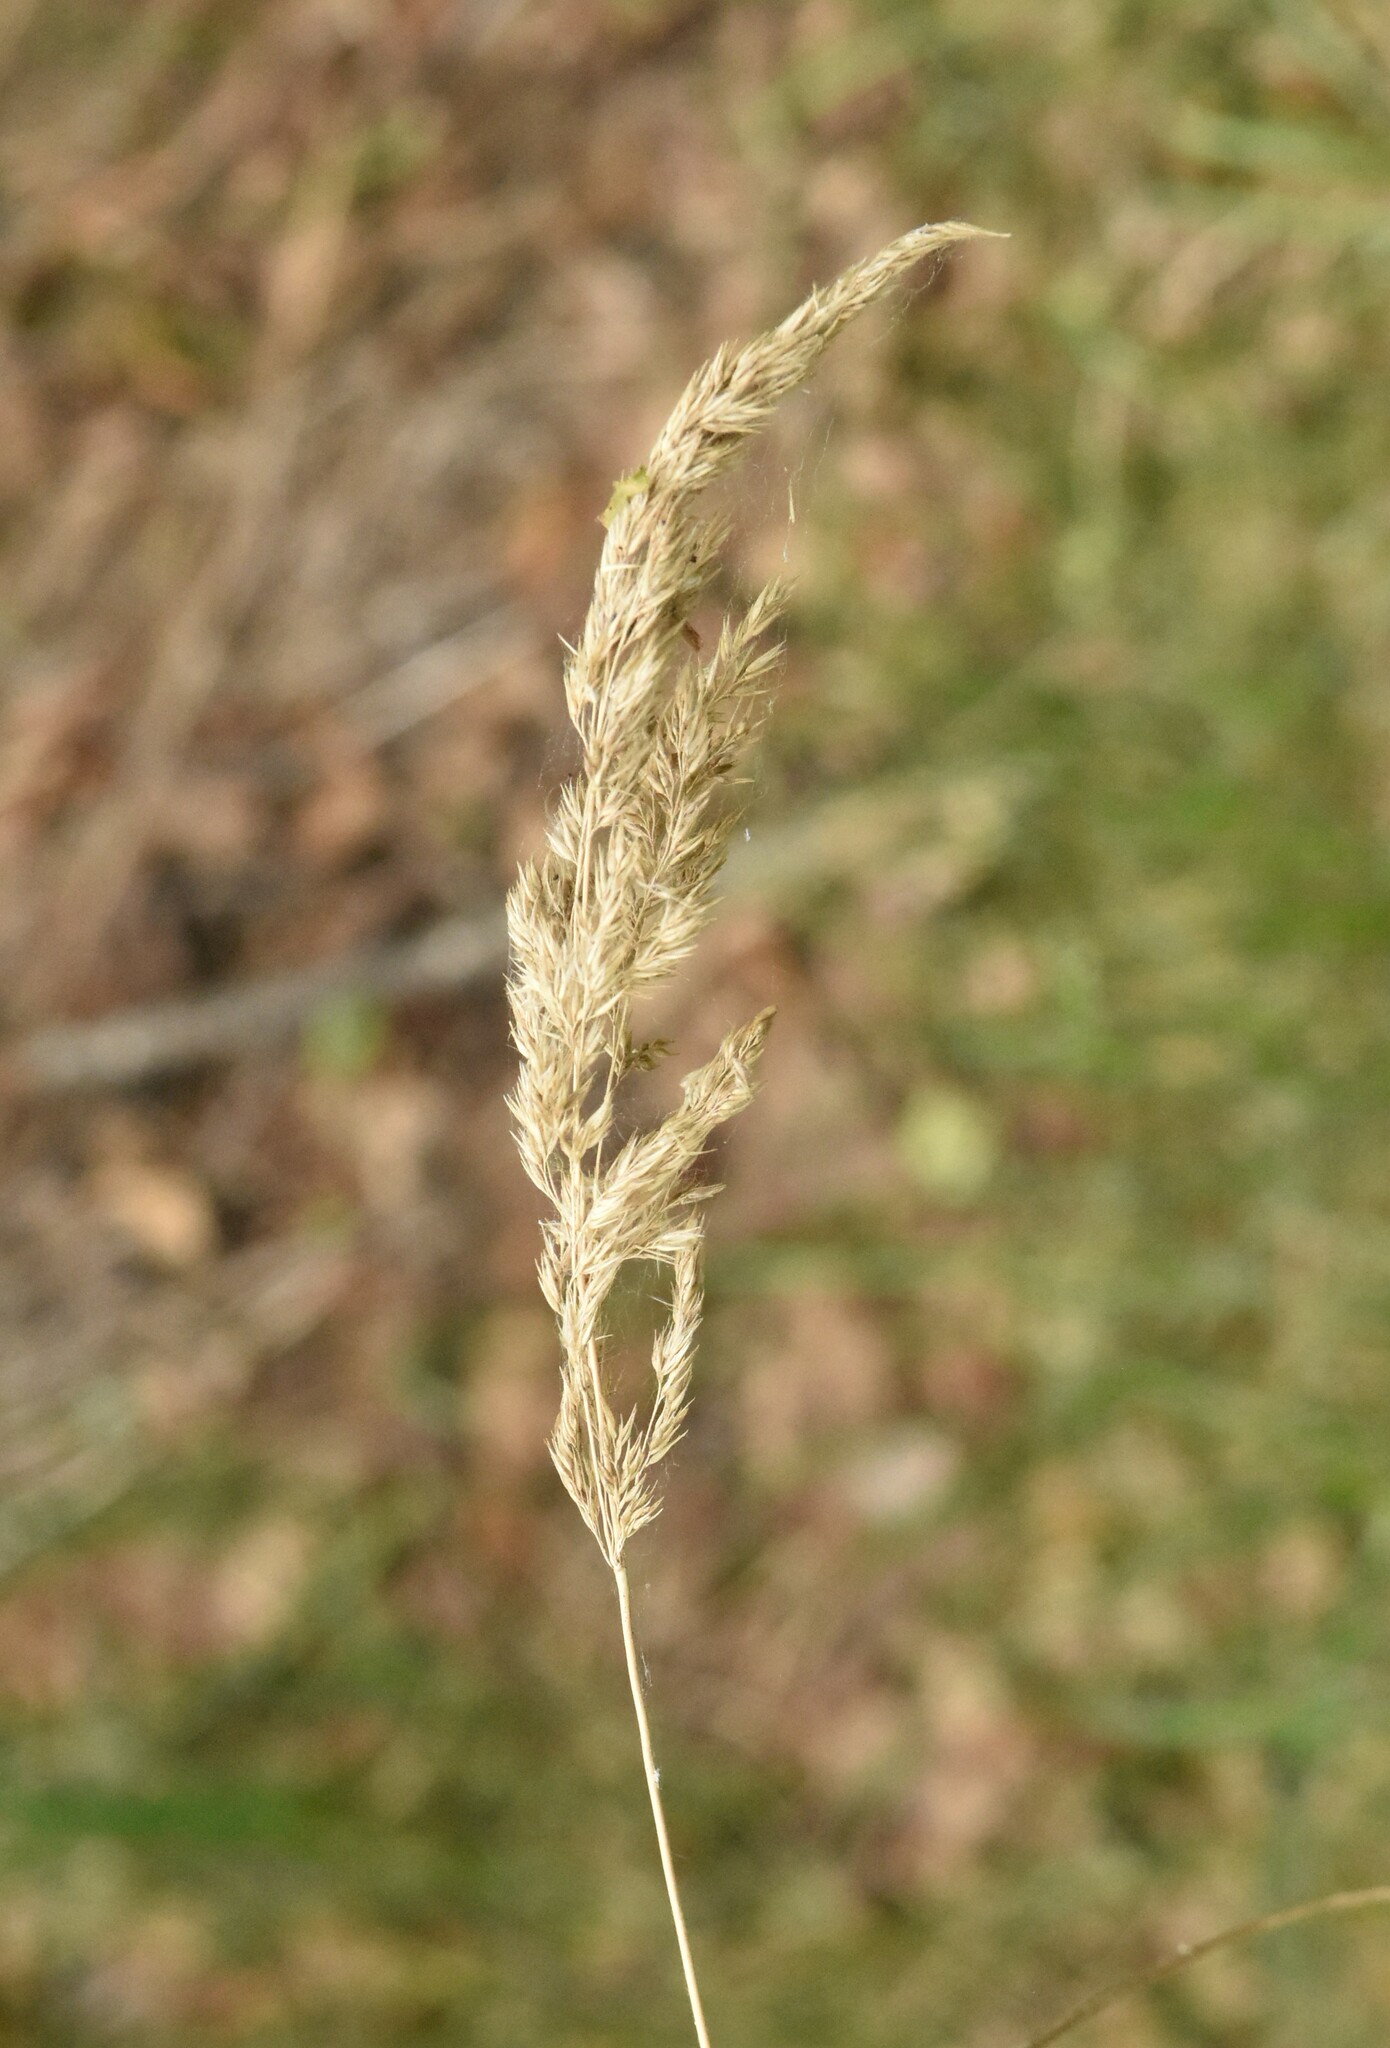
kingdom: Plantae
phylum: Tracheophyta
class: Liliopsida
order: Poales
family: Poaceae
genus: Calamagrostis
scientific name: Calamagrostis epigejos
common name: Wood small-reed
